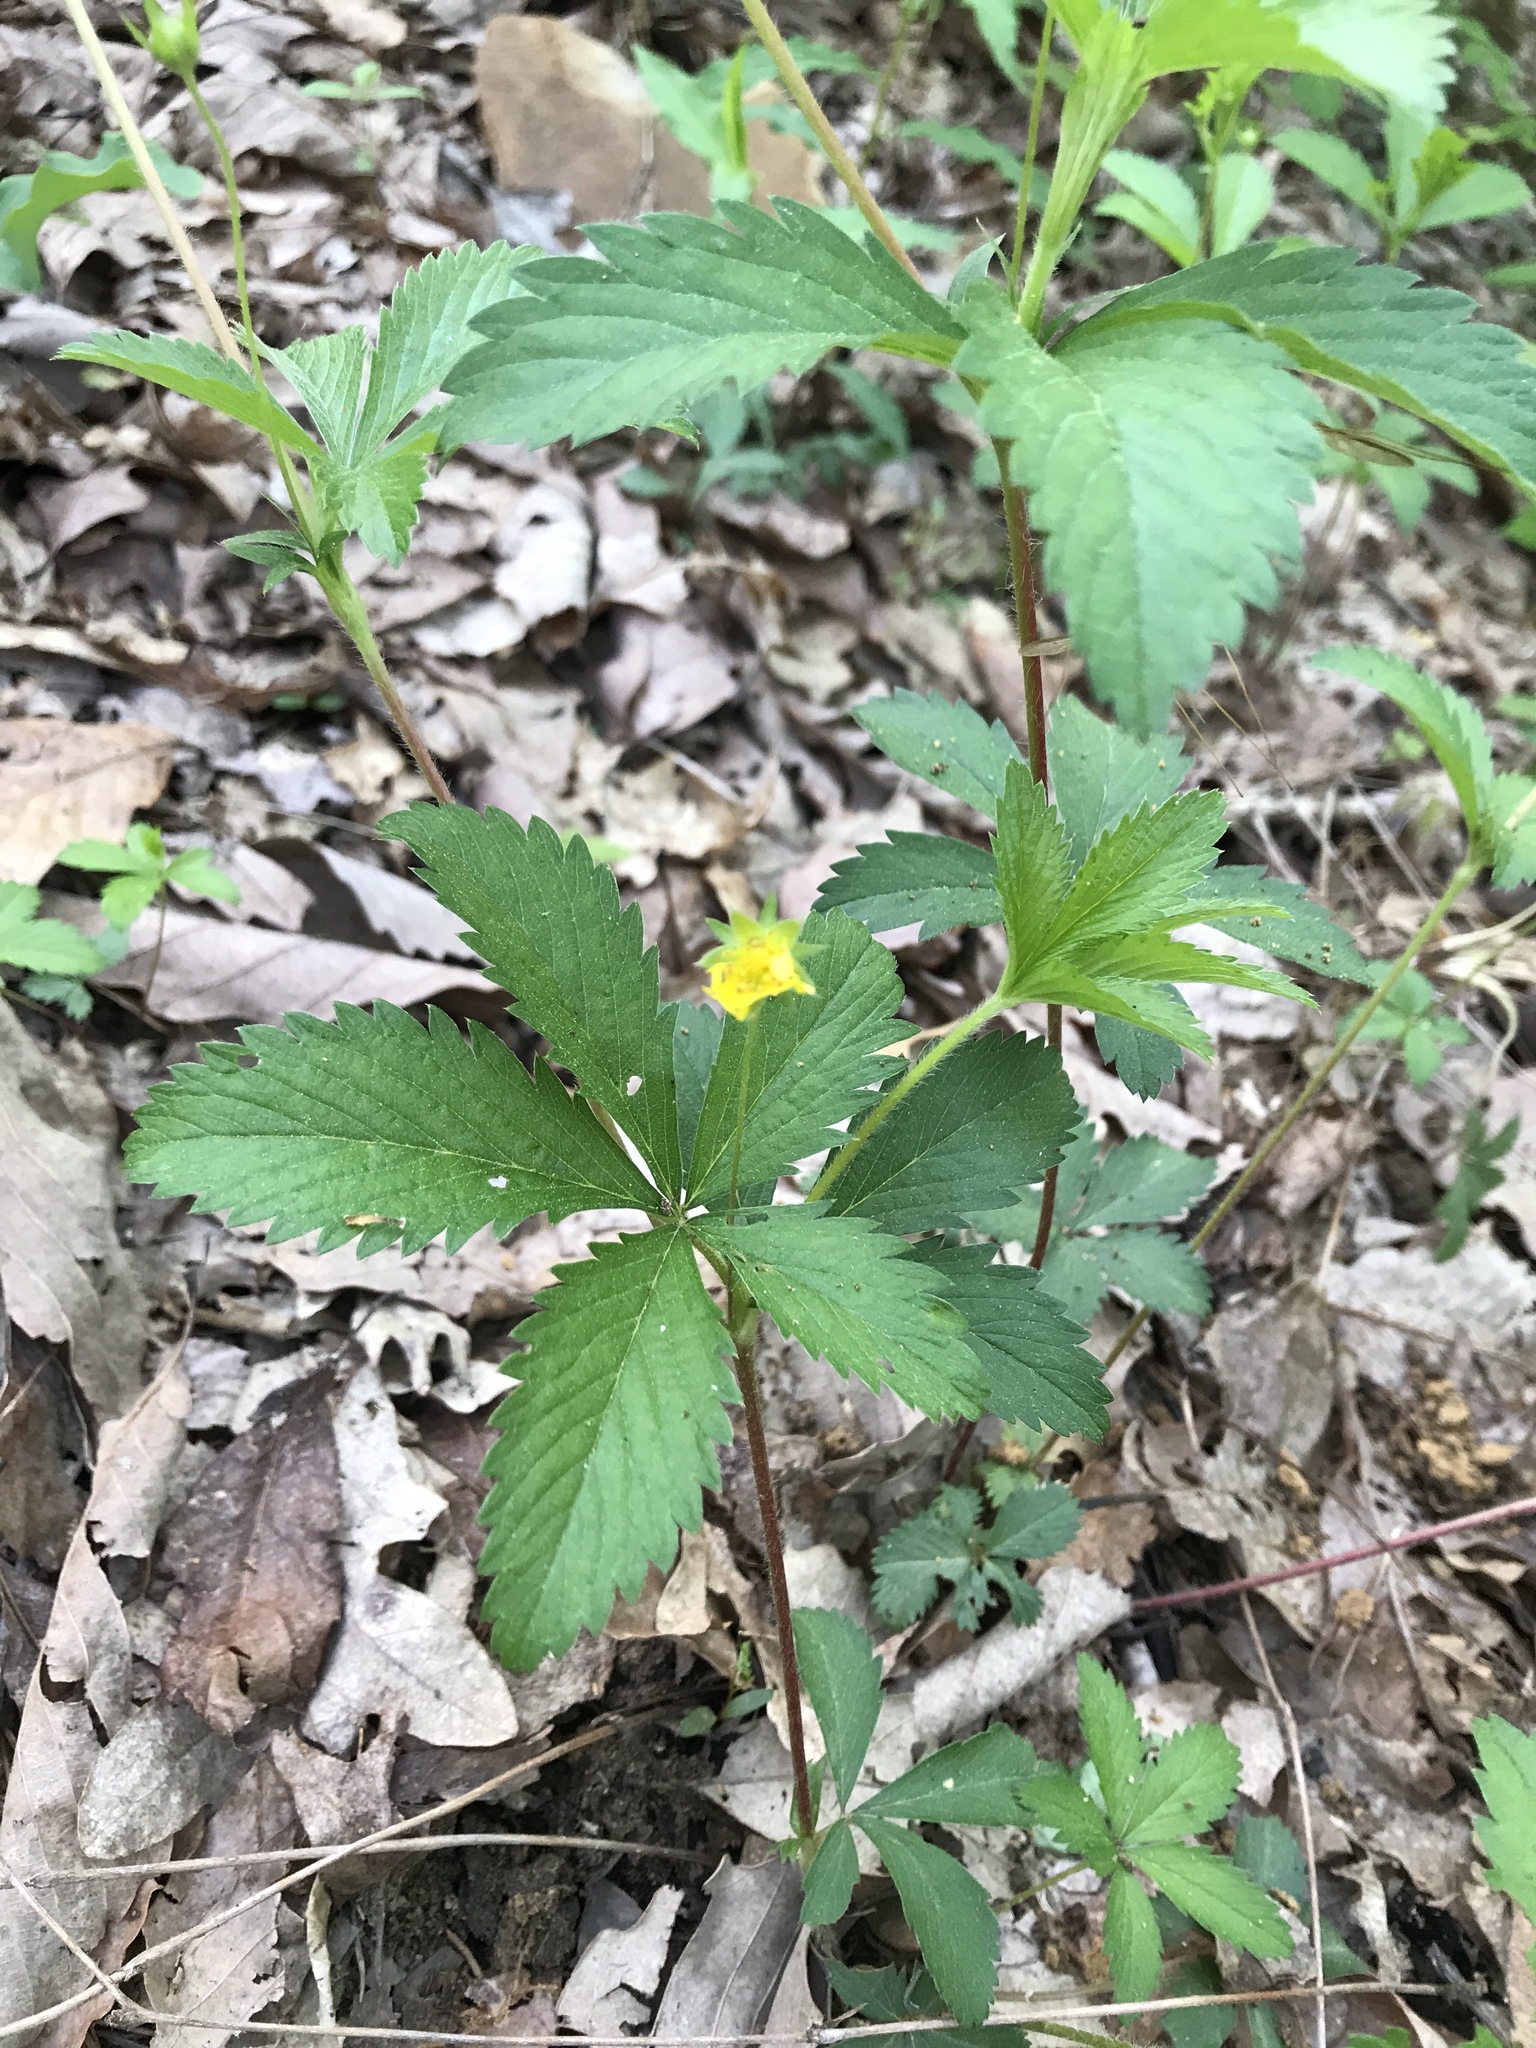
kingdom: Plantae
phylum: Tracheophyta
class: Magnoliopsida
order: Rosales
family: Rosaceae
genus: Potentilla
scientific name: Potentilla simplex
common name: Old field cinquefoil
